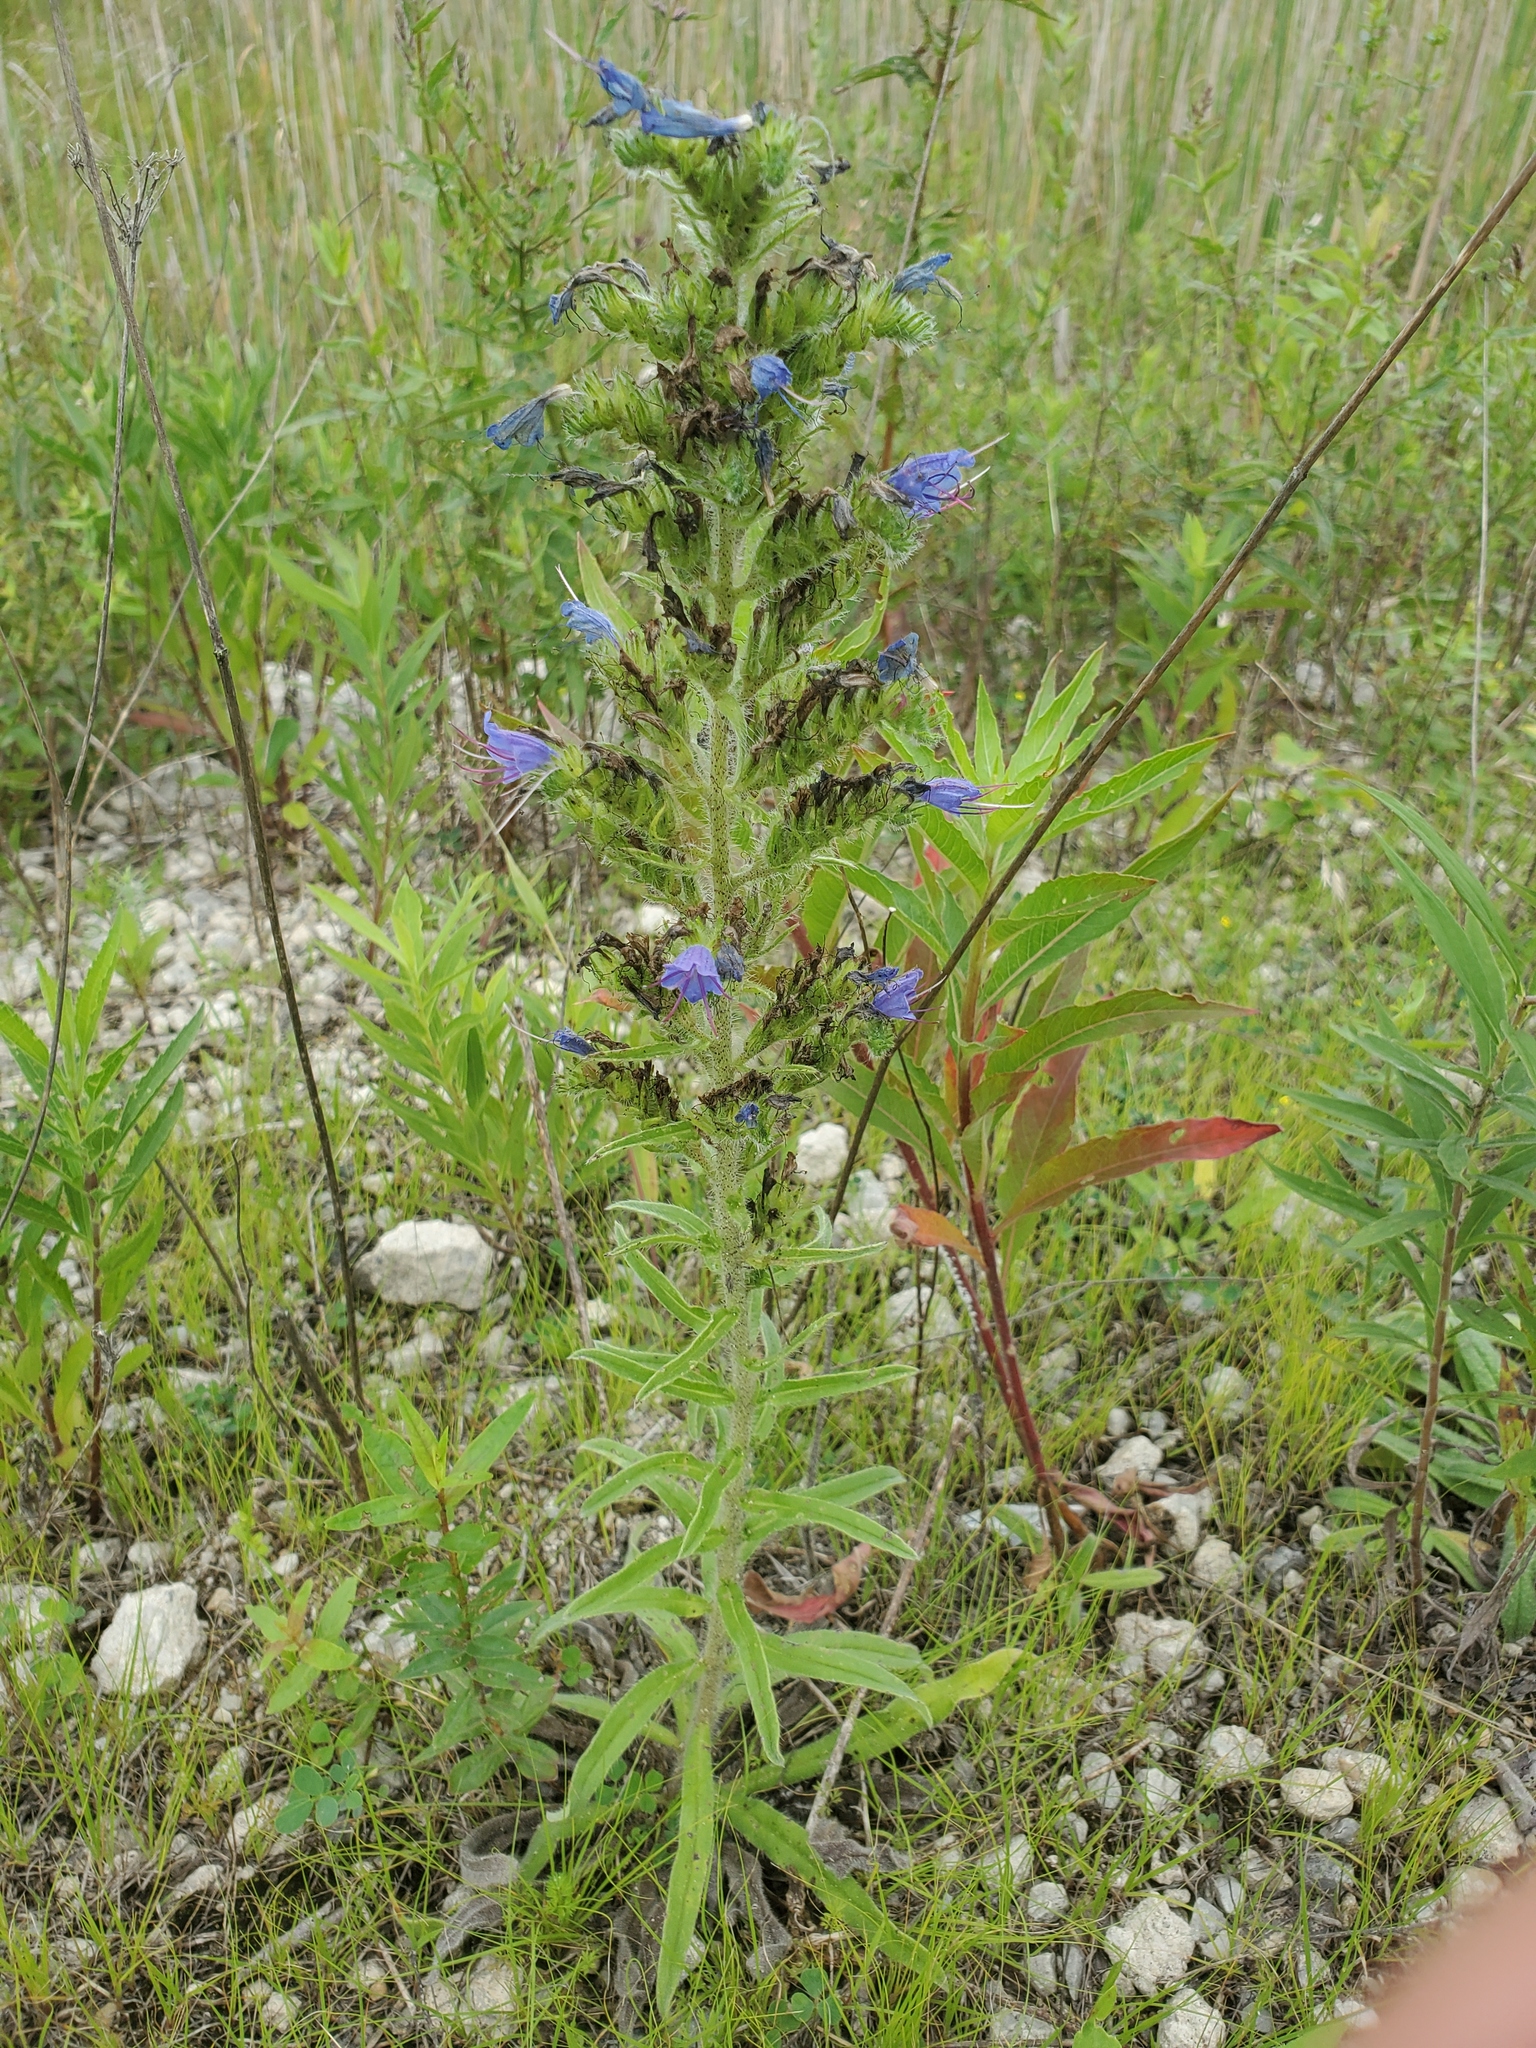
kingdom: Plantae
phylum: Tracheophyta
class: Magnoliopsida
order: Boraginales
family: Boraginaceae
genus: Echium
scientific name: Echium vulgare
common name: Common viper's bugloss
